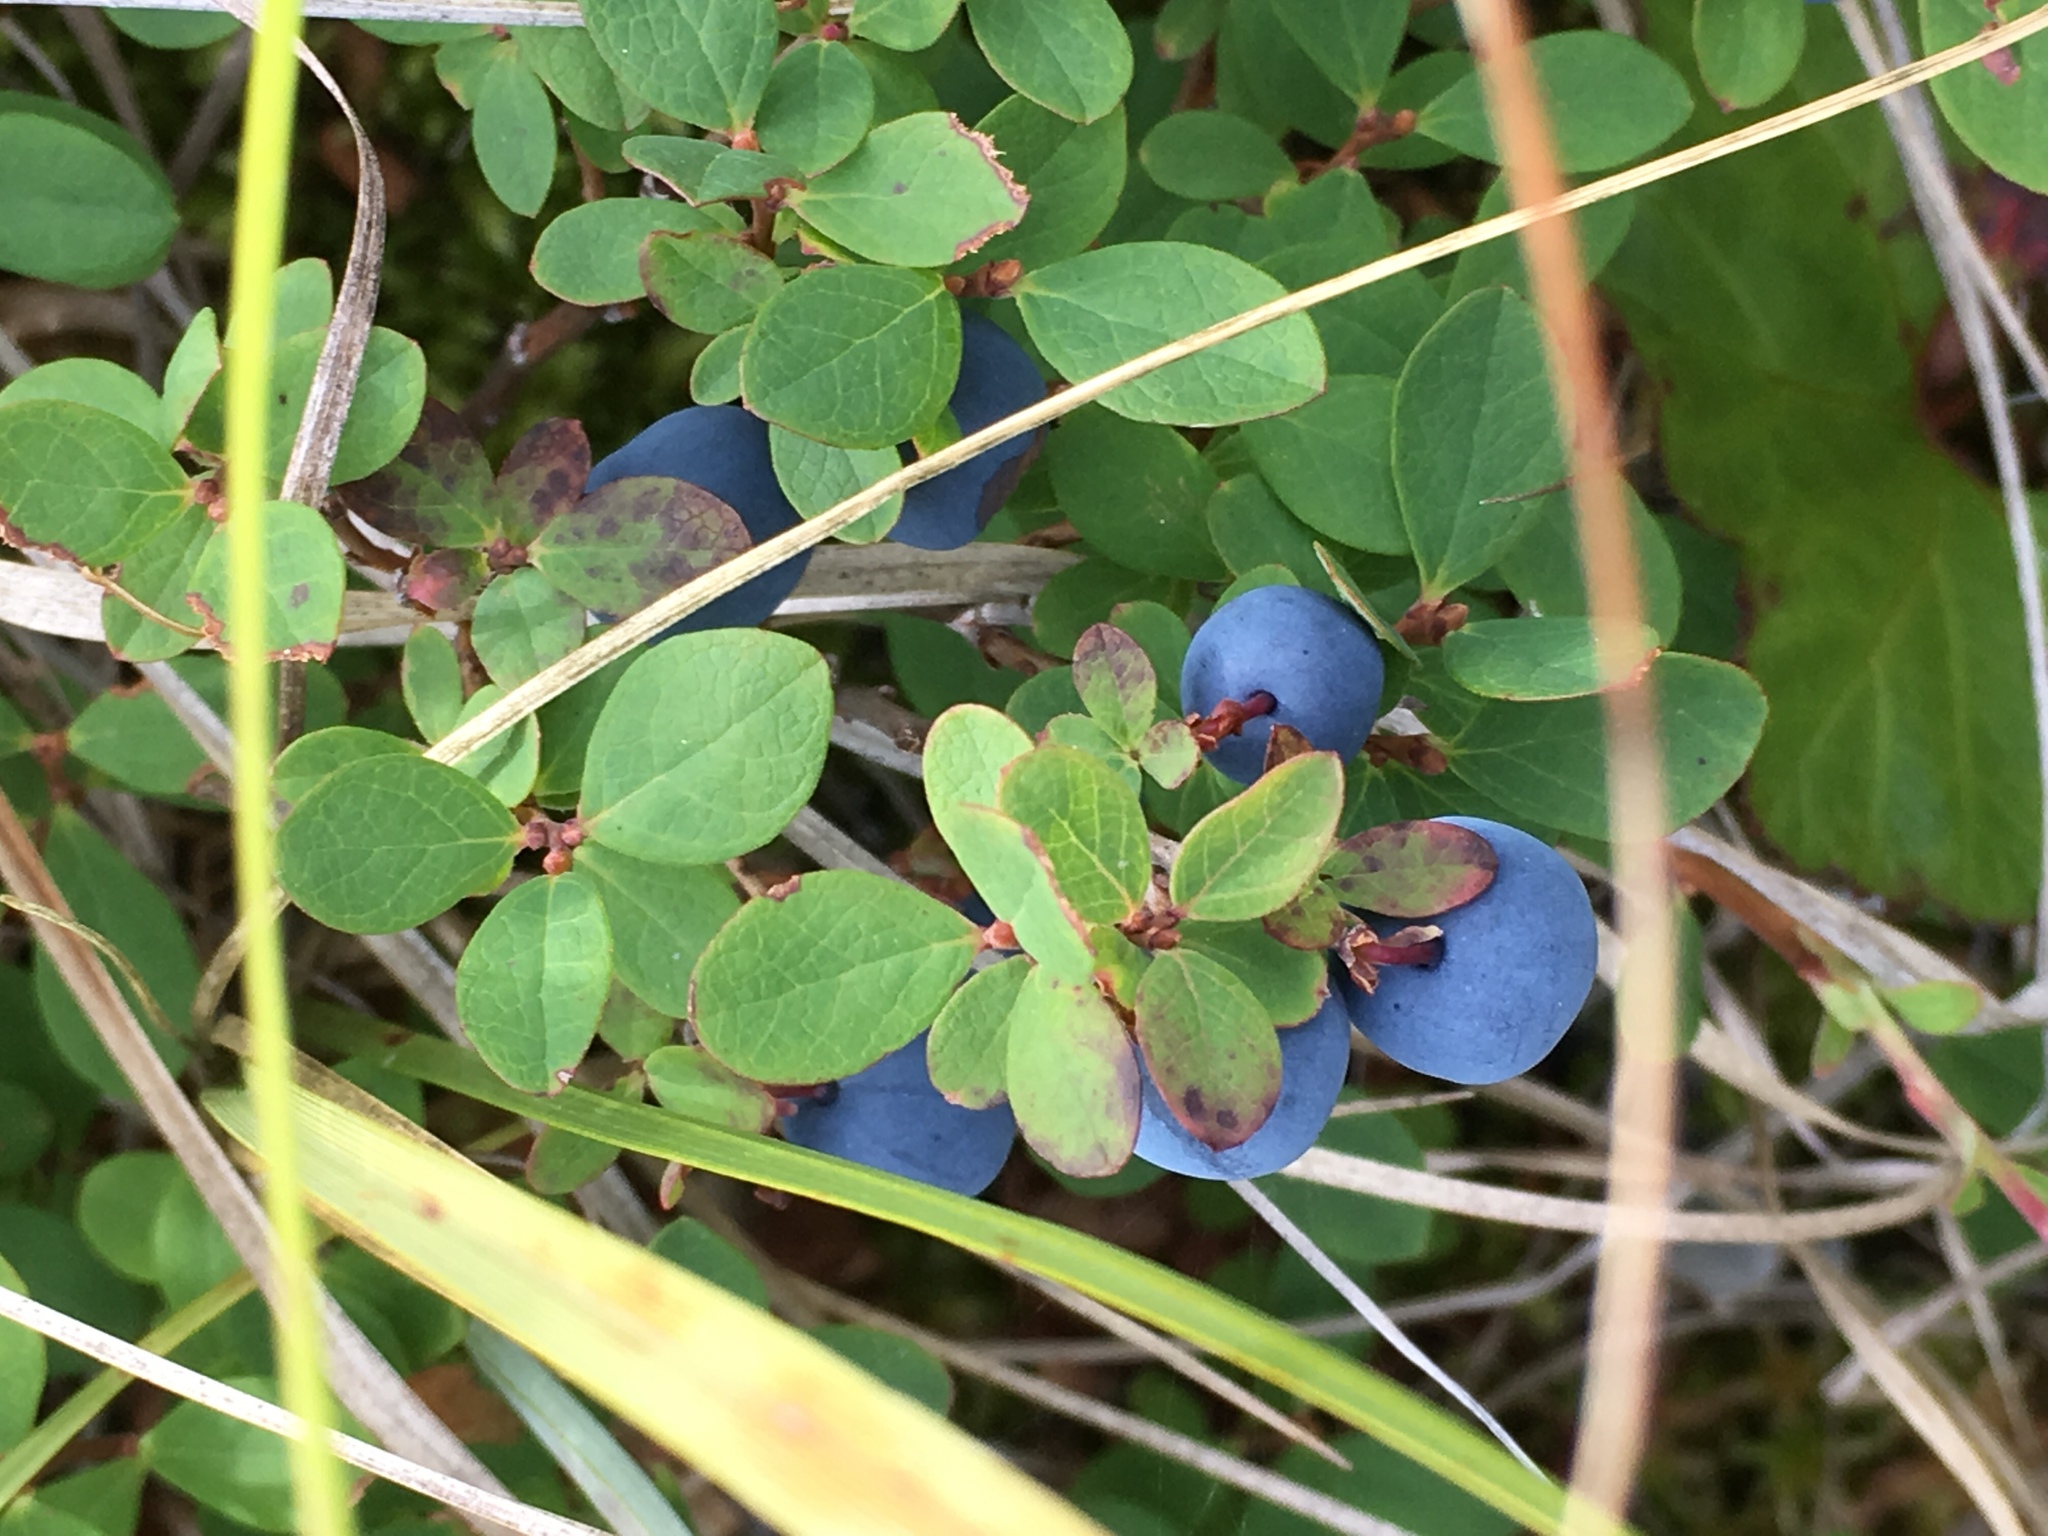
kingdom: Plantae
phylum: Tracheophyta
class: Magnoliopsida
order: Ericales
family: Ericaceae
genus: Vaccinium
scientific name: Vaccinium uliginosum
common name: Bog bilberry
